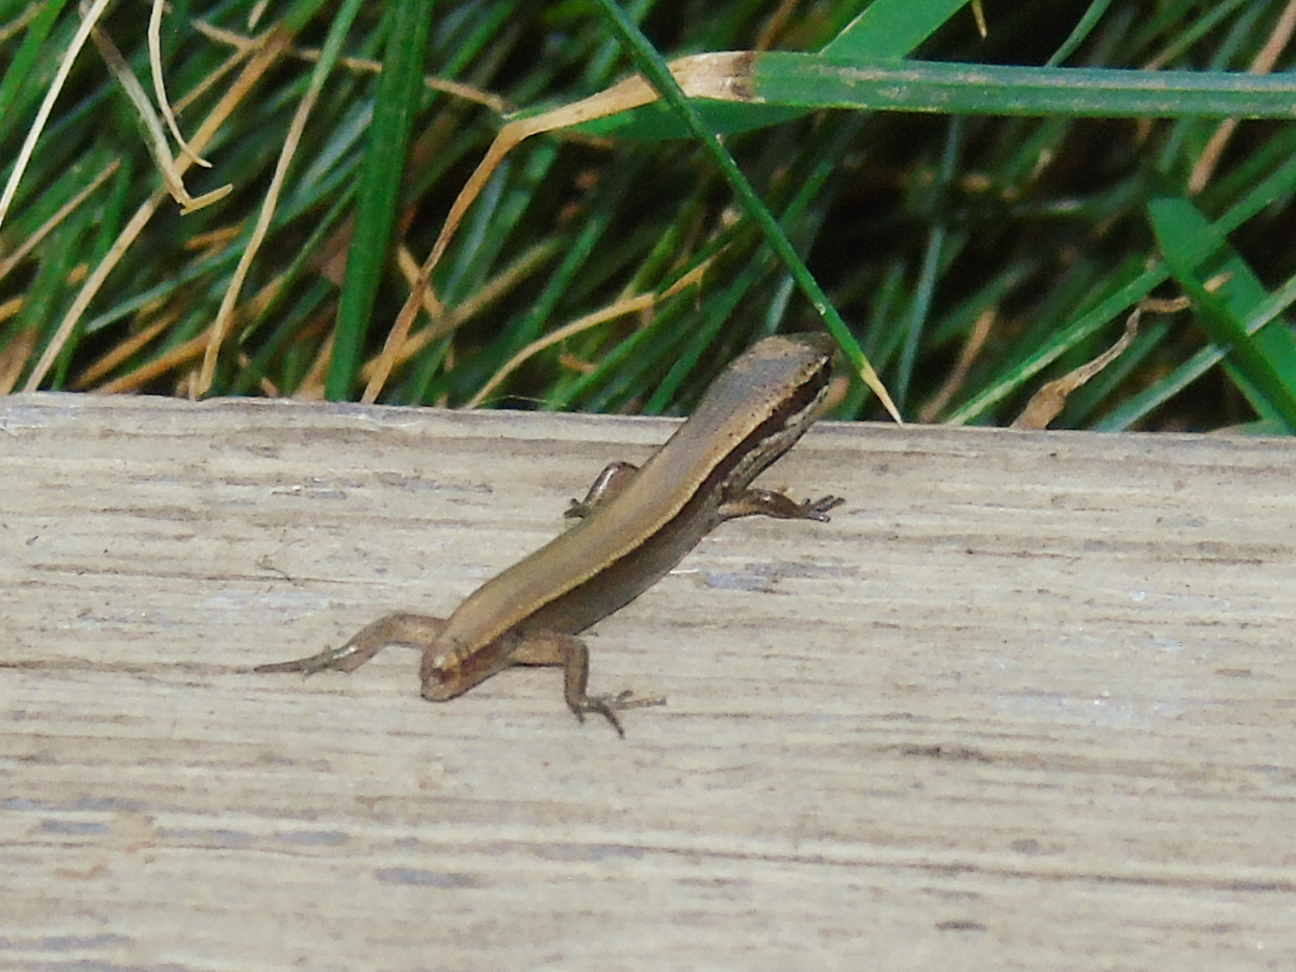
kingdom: Animalia
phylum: Chordata
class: Squamata
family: Scincidae
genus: Ablepharus
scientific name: Ablepharus deserti
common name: Desert lidless skink
